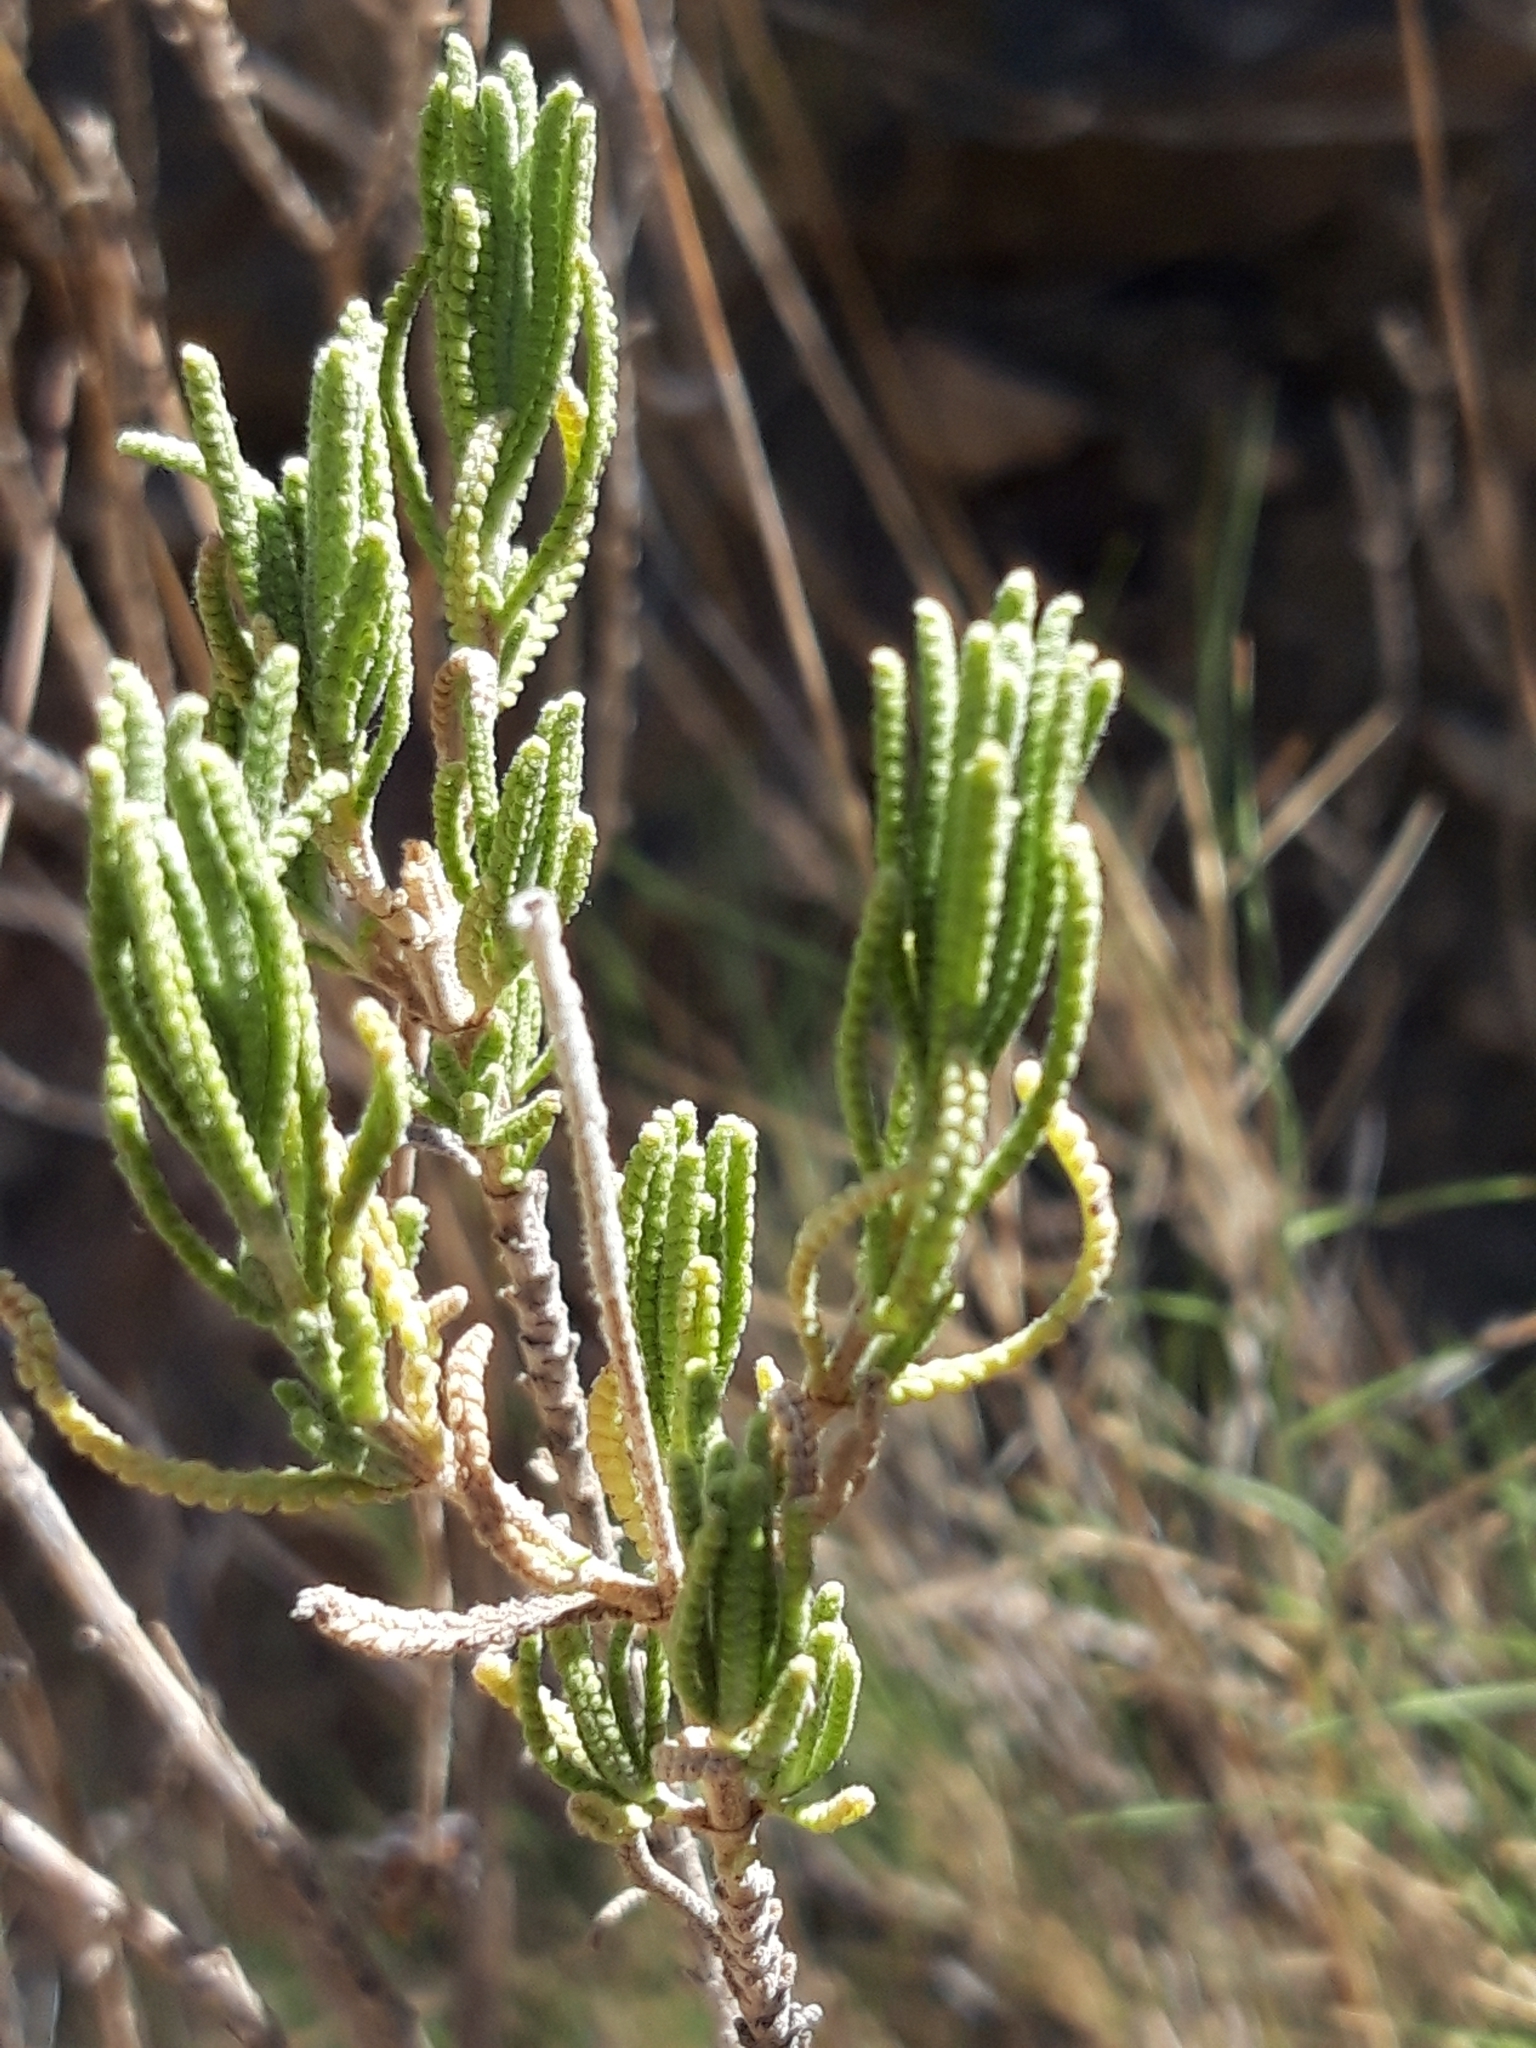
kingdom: Plantae
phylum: Tracheophyta
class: Magnoliopsida
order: Lamiales
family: Lamiaceae
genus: Lavandula
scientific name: Lavandula dentata
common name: French lavender
